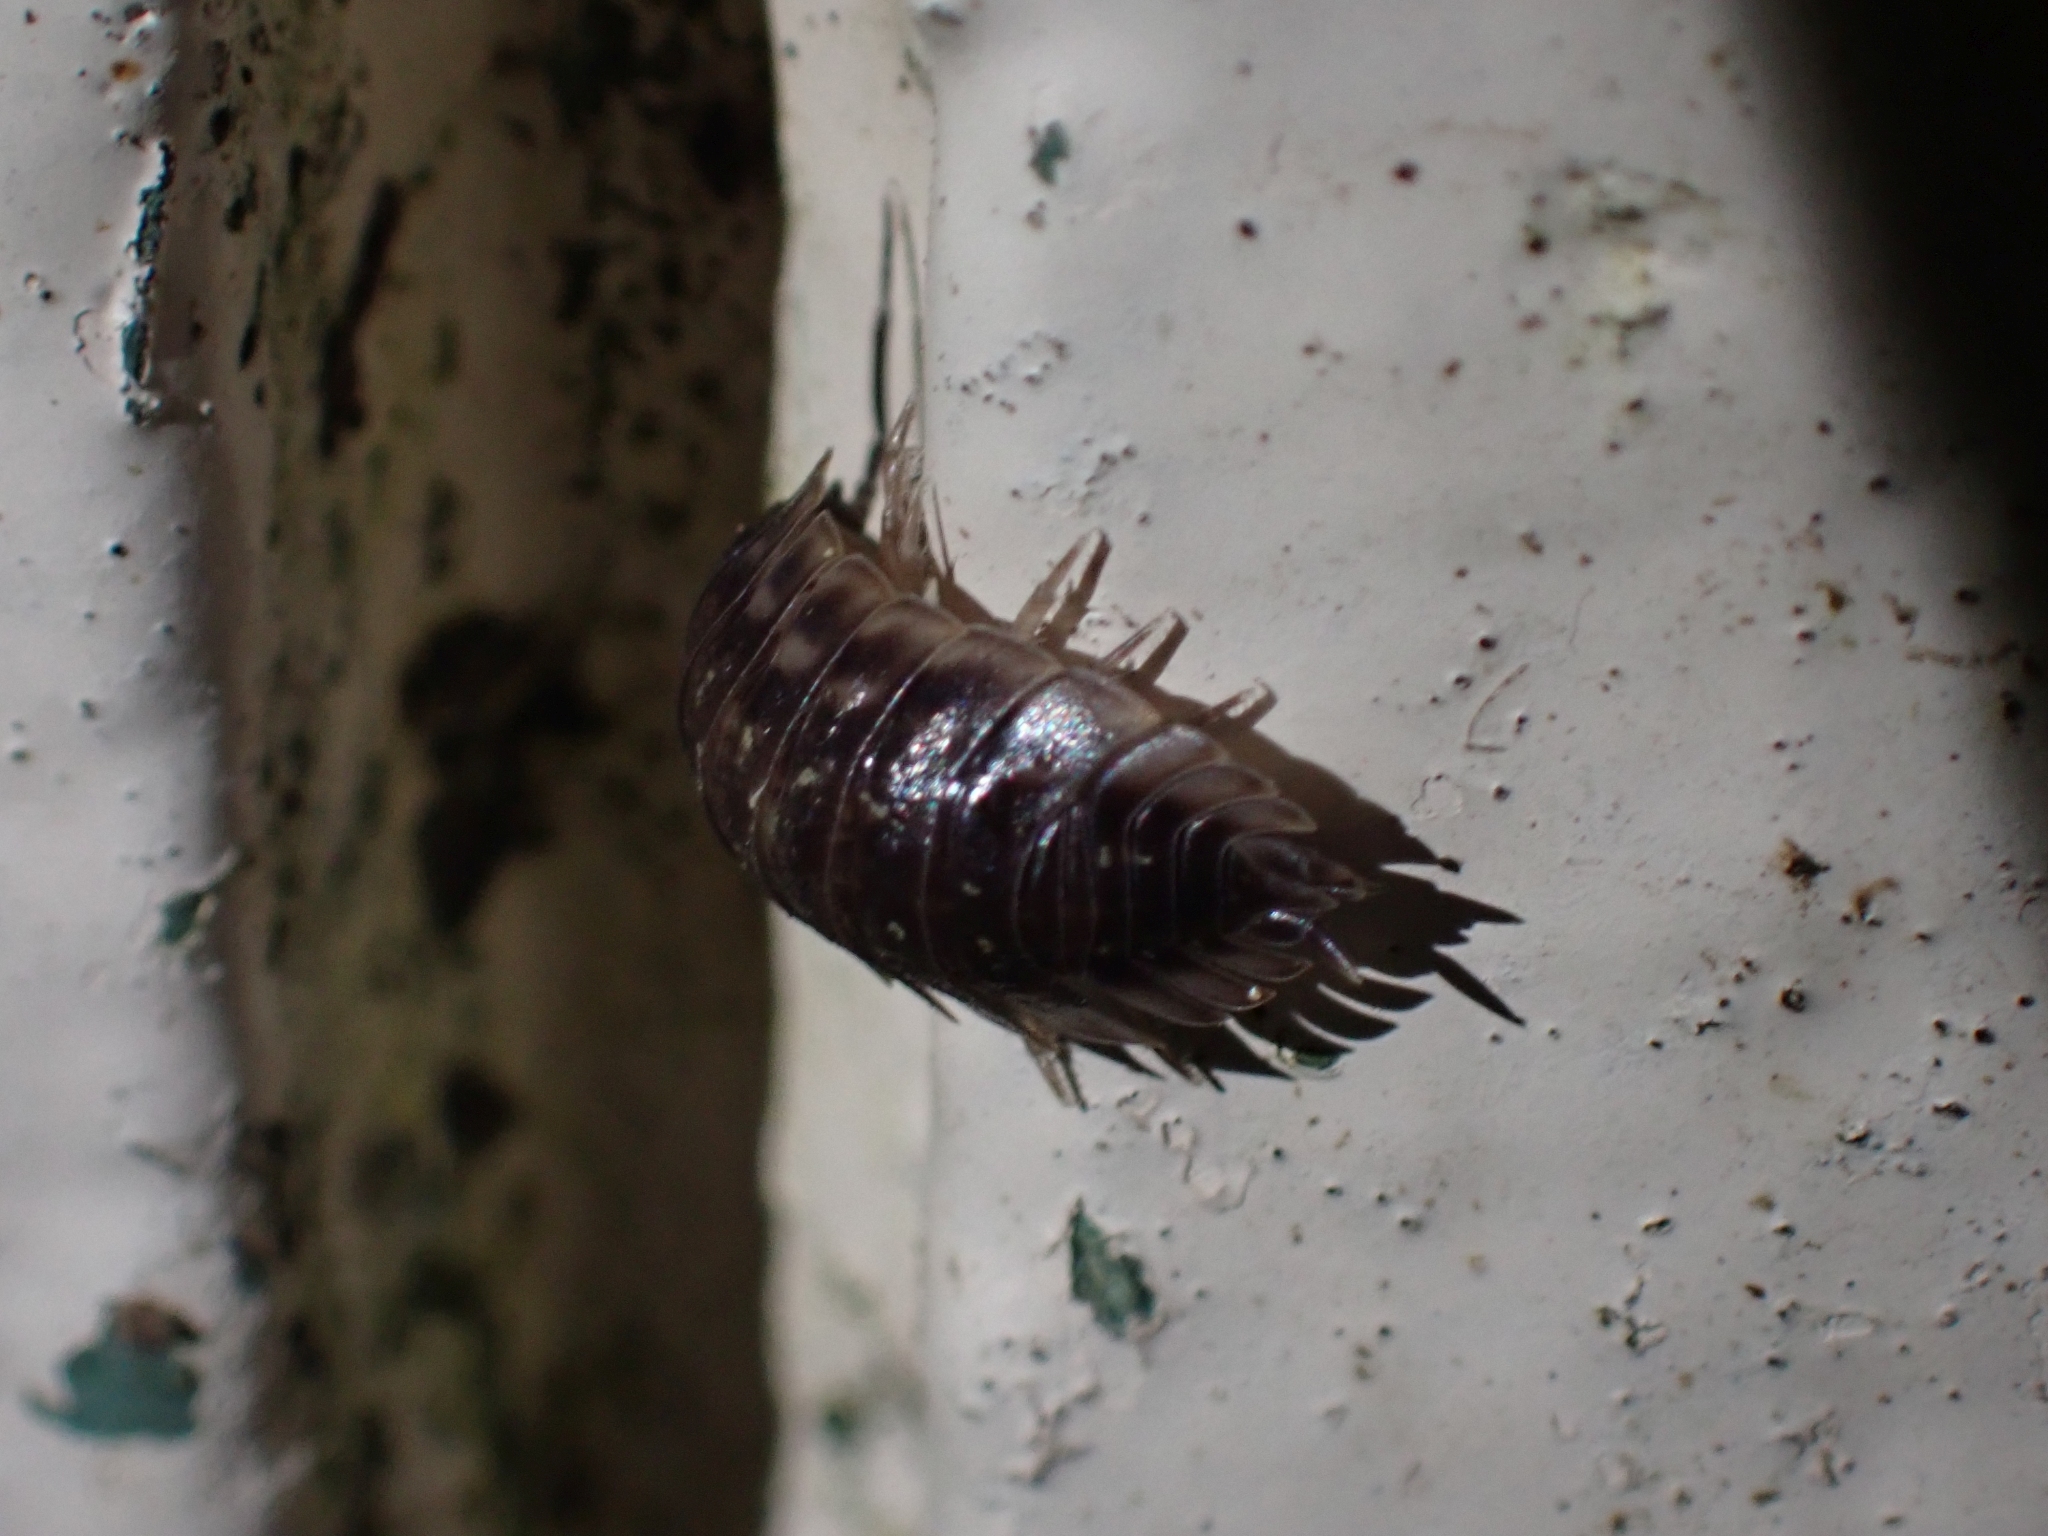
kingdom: Animalia
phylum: Arthropoda
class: Malacostraca
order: Isopoda
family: Oniscidae
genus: Oniscus
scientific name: Oniscus asellus
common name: Common shiny woodlouse
